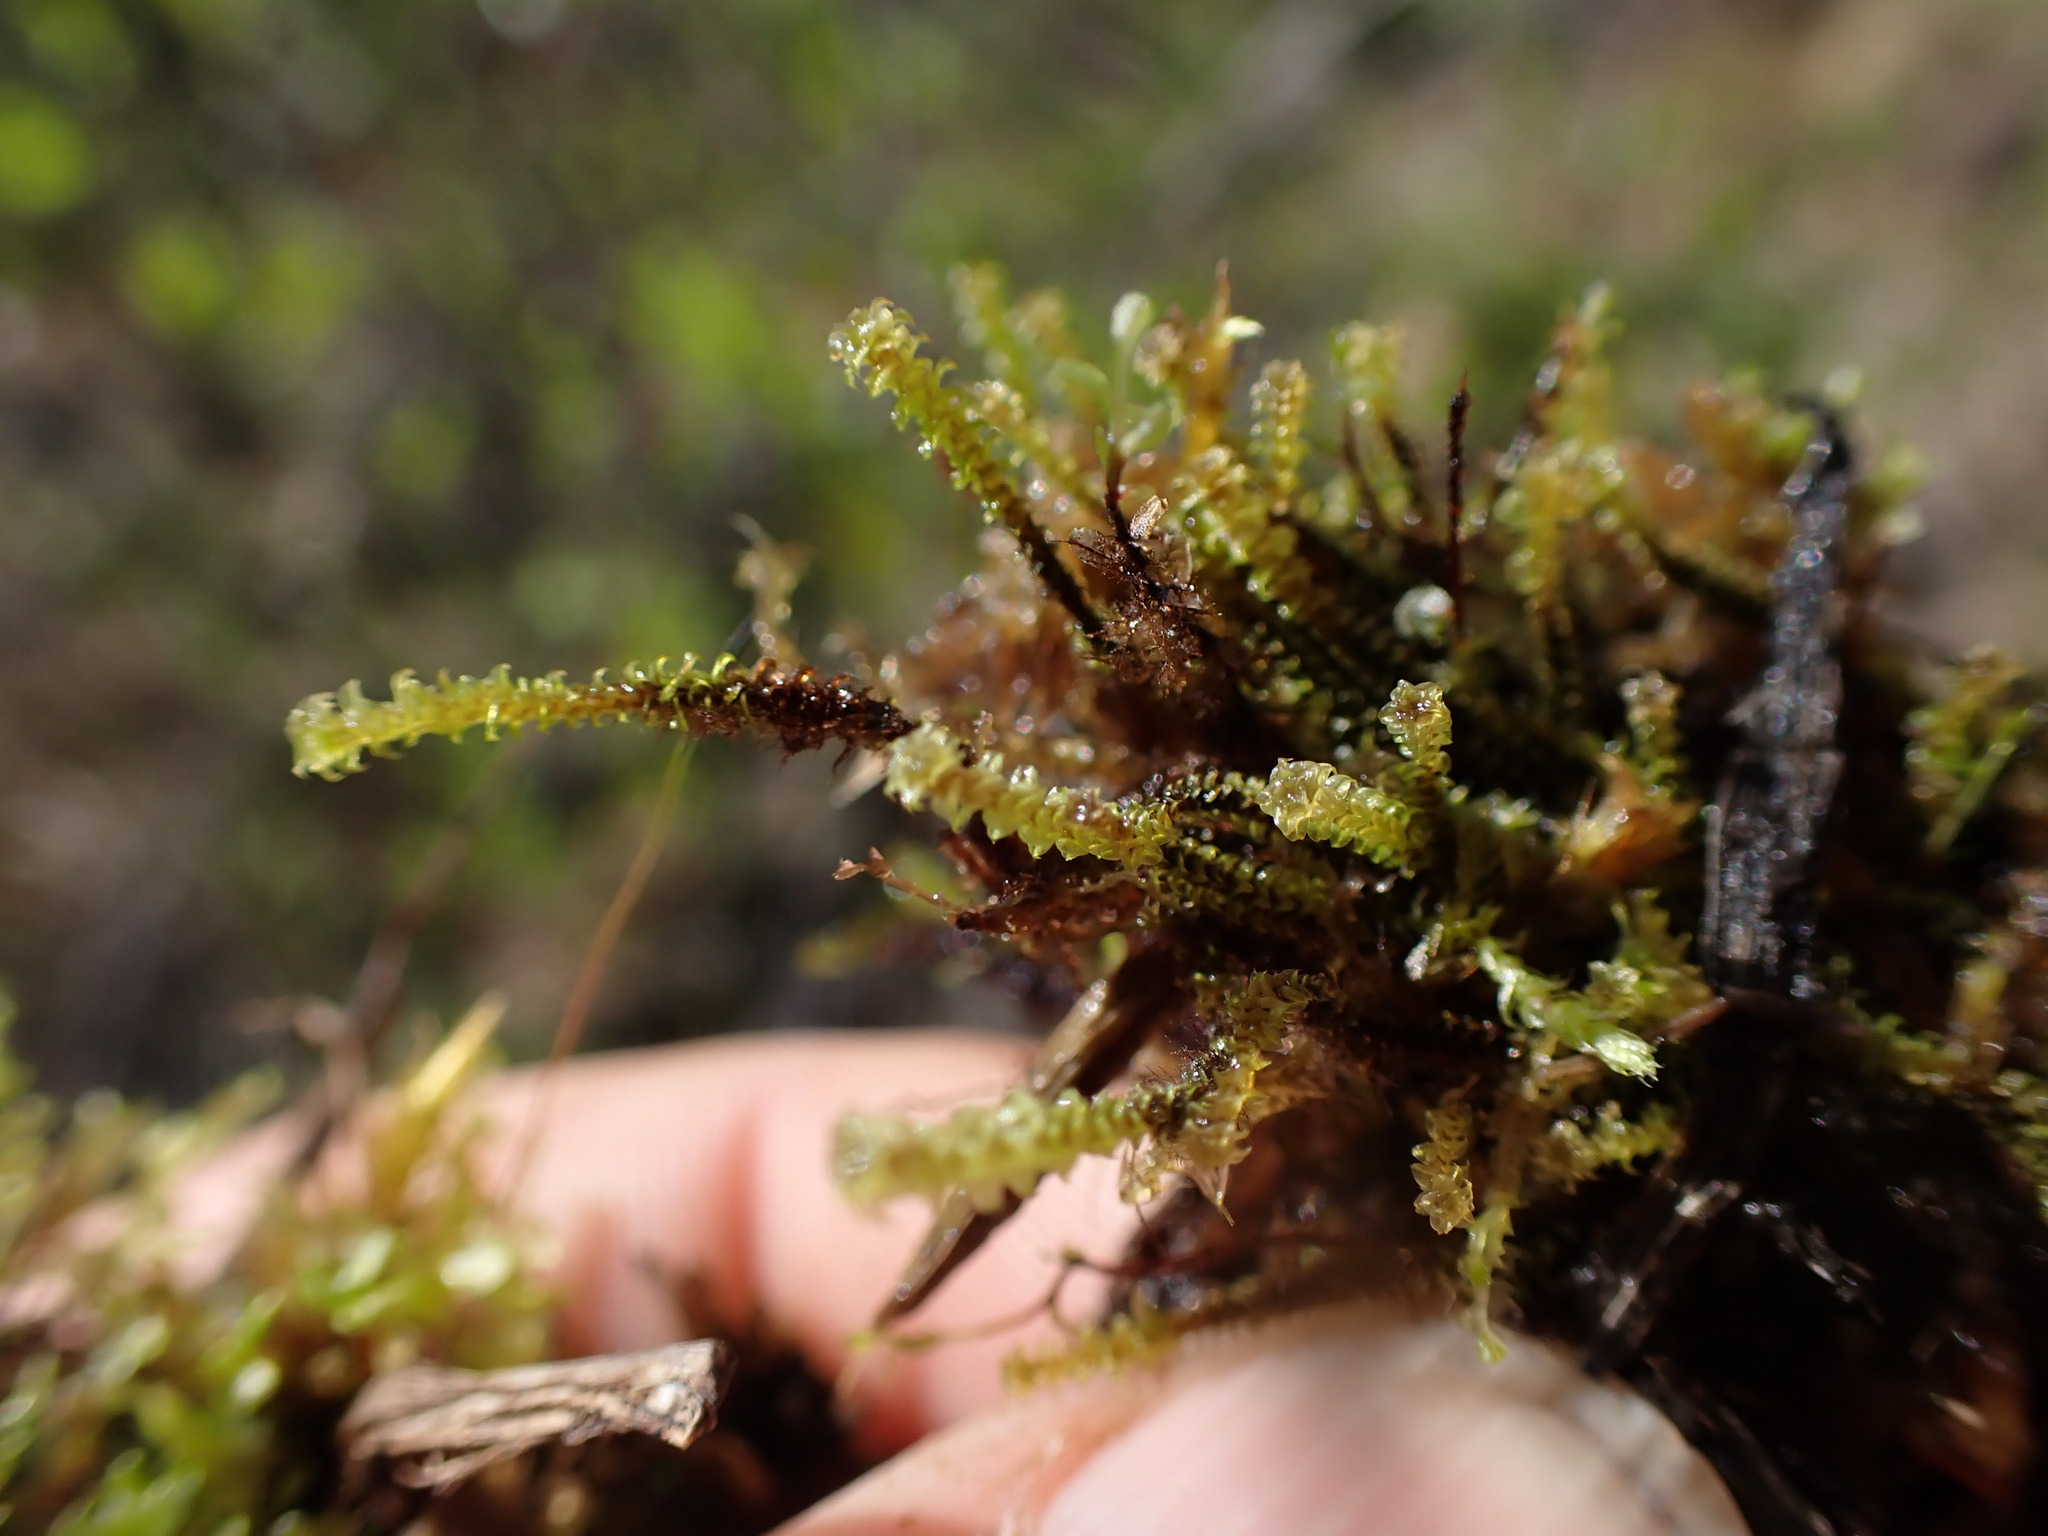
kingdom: Plantae
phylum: Bryophyta
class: Bryopsida
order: Splachnales
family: Meesiaceae
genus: Paludella
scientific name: Paludella squarrosa
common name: Tufted fen moss
